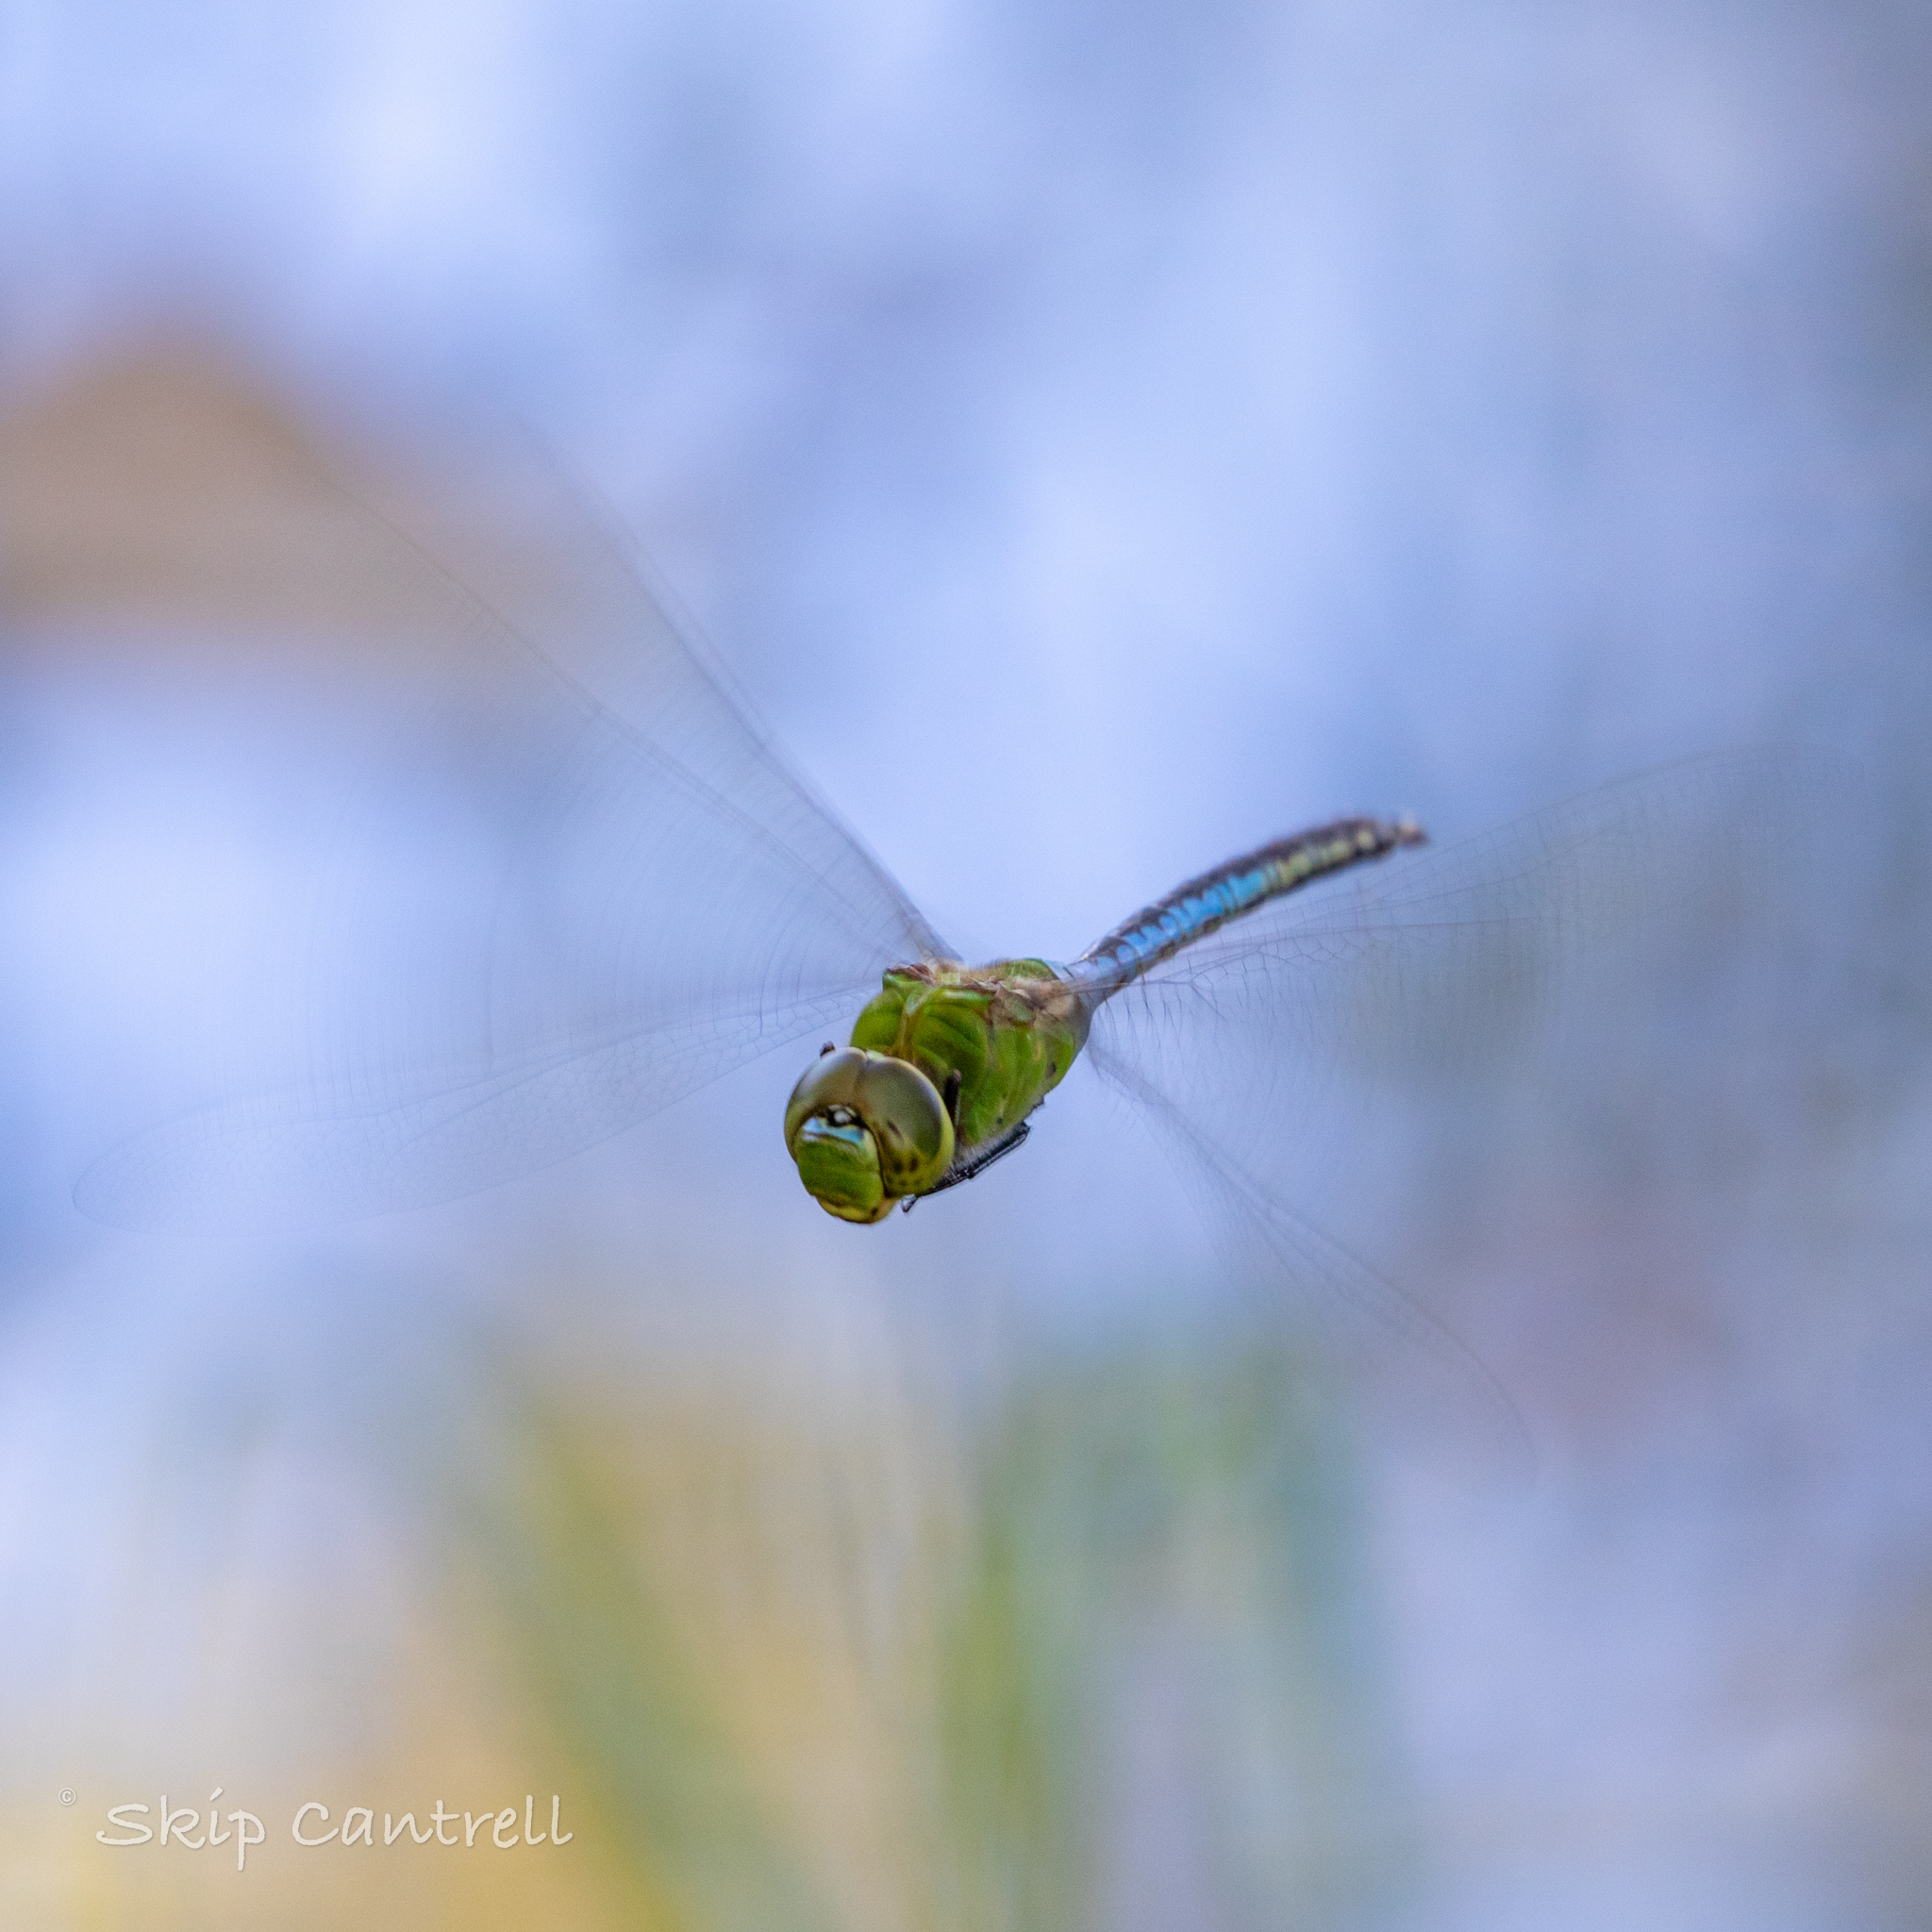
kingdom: Animalia
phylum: Arthropoda
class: Insecta
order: Odonata
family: Aeshnidae
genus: Anax
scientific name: Anax junius
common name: Common green darner
